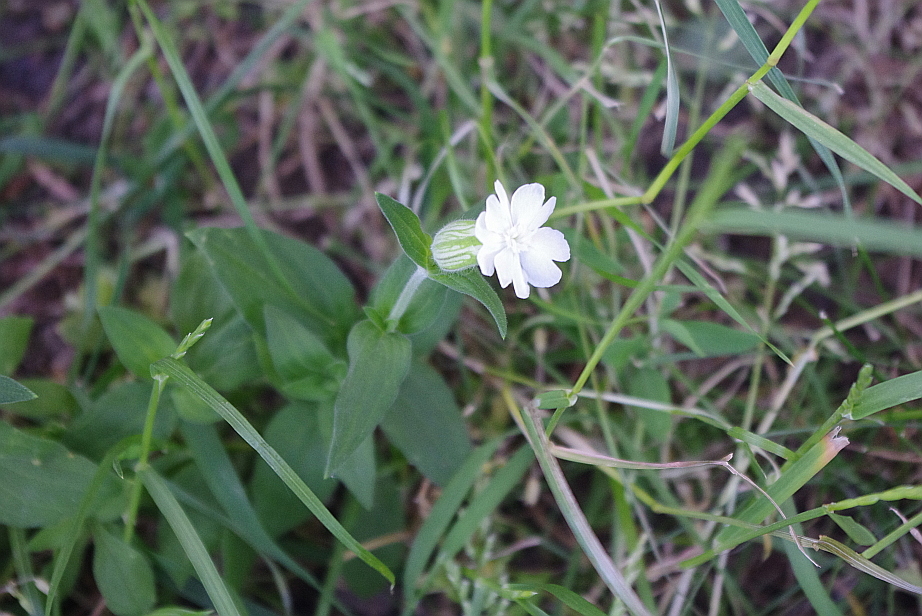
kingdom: Plantae
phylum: Tracheophyta
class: Magnoliopsida
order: Caryophyllales
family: Caryophyllaceae
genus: Silene
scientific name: Silene latifolia
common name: White campion
